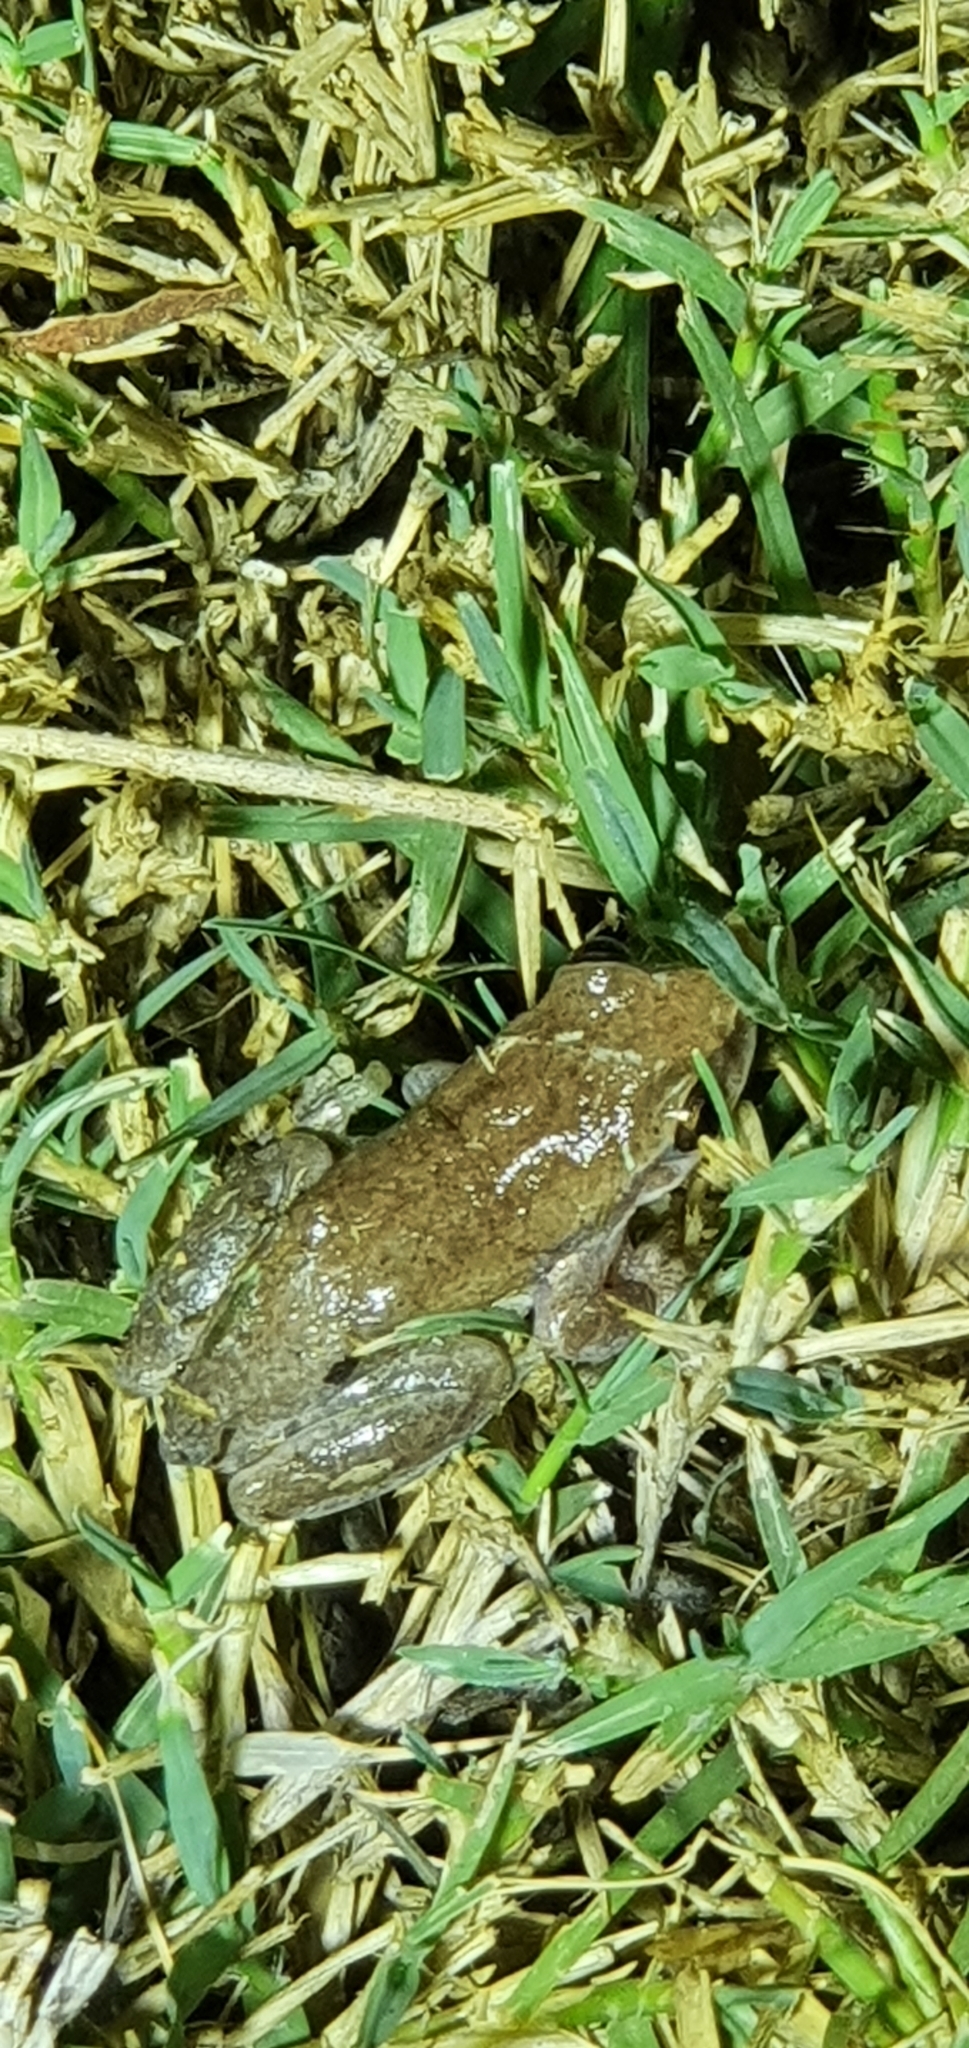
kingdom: Animalia
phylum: Chordata
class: Amphibia
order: Anura
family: Pelodryadidae
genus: Litoria
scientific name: Litoria rubella
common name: Desert tree frog
